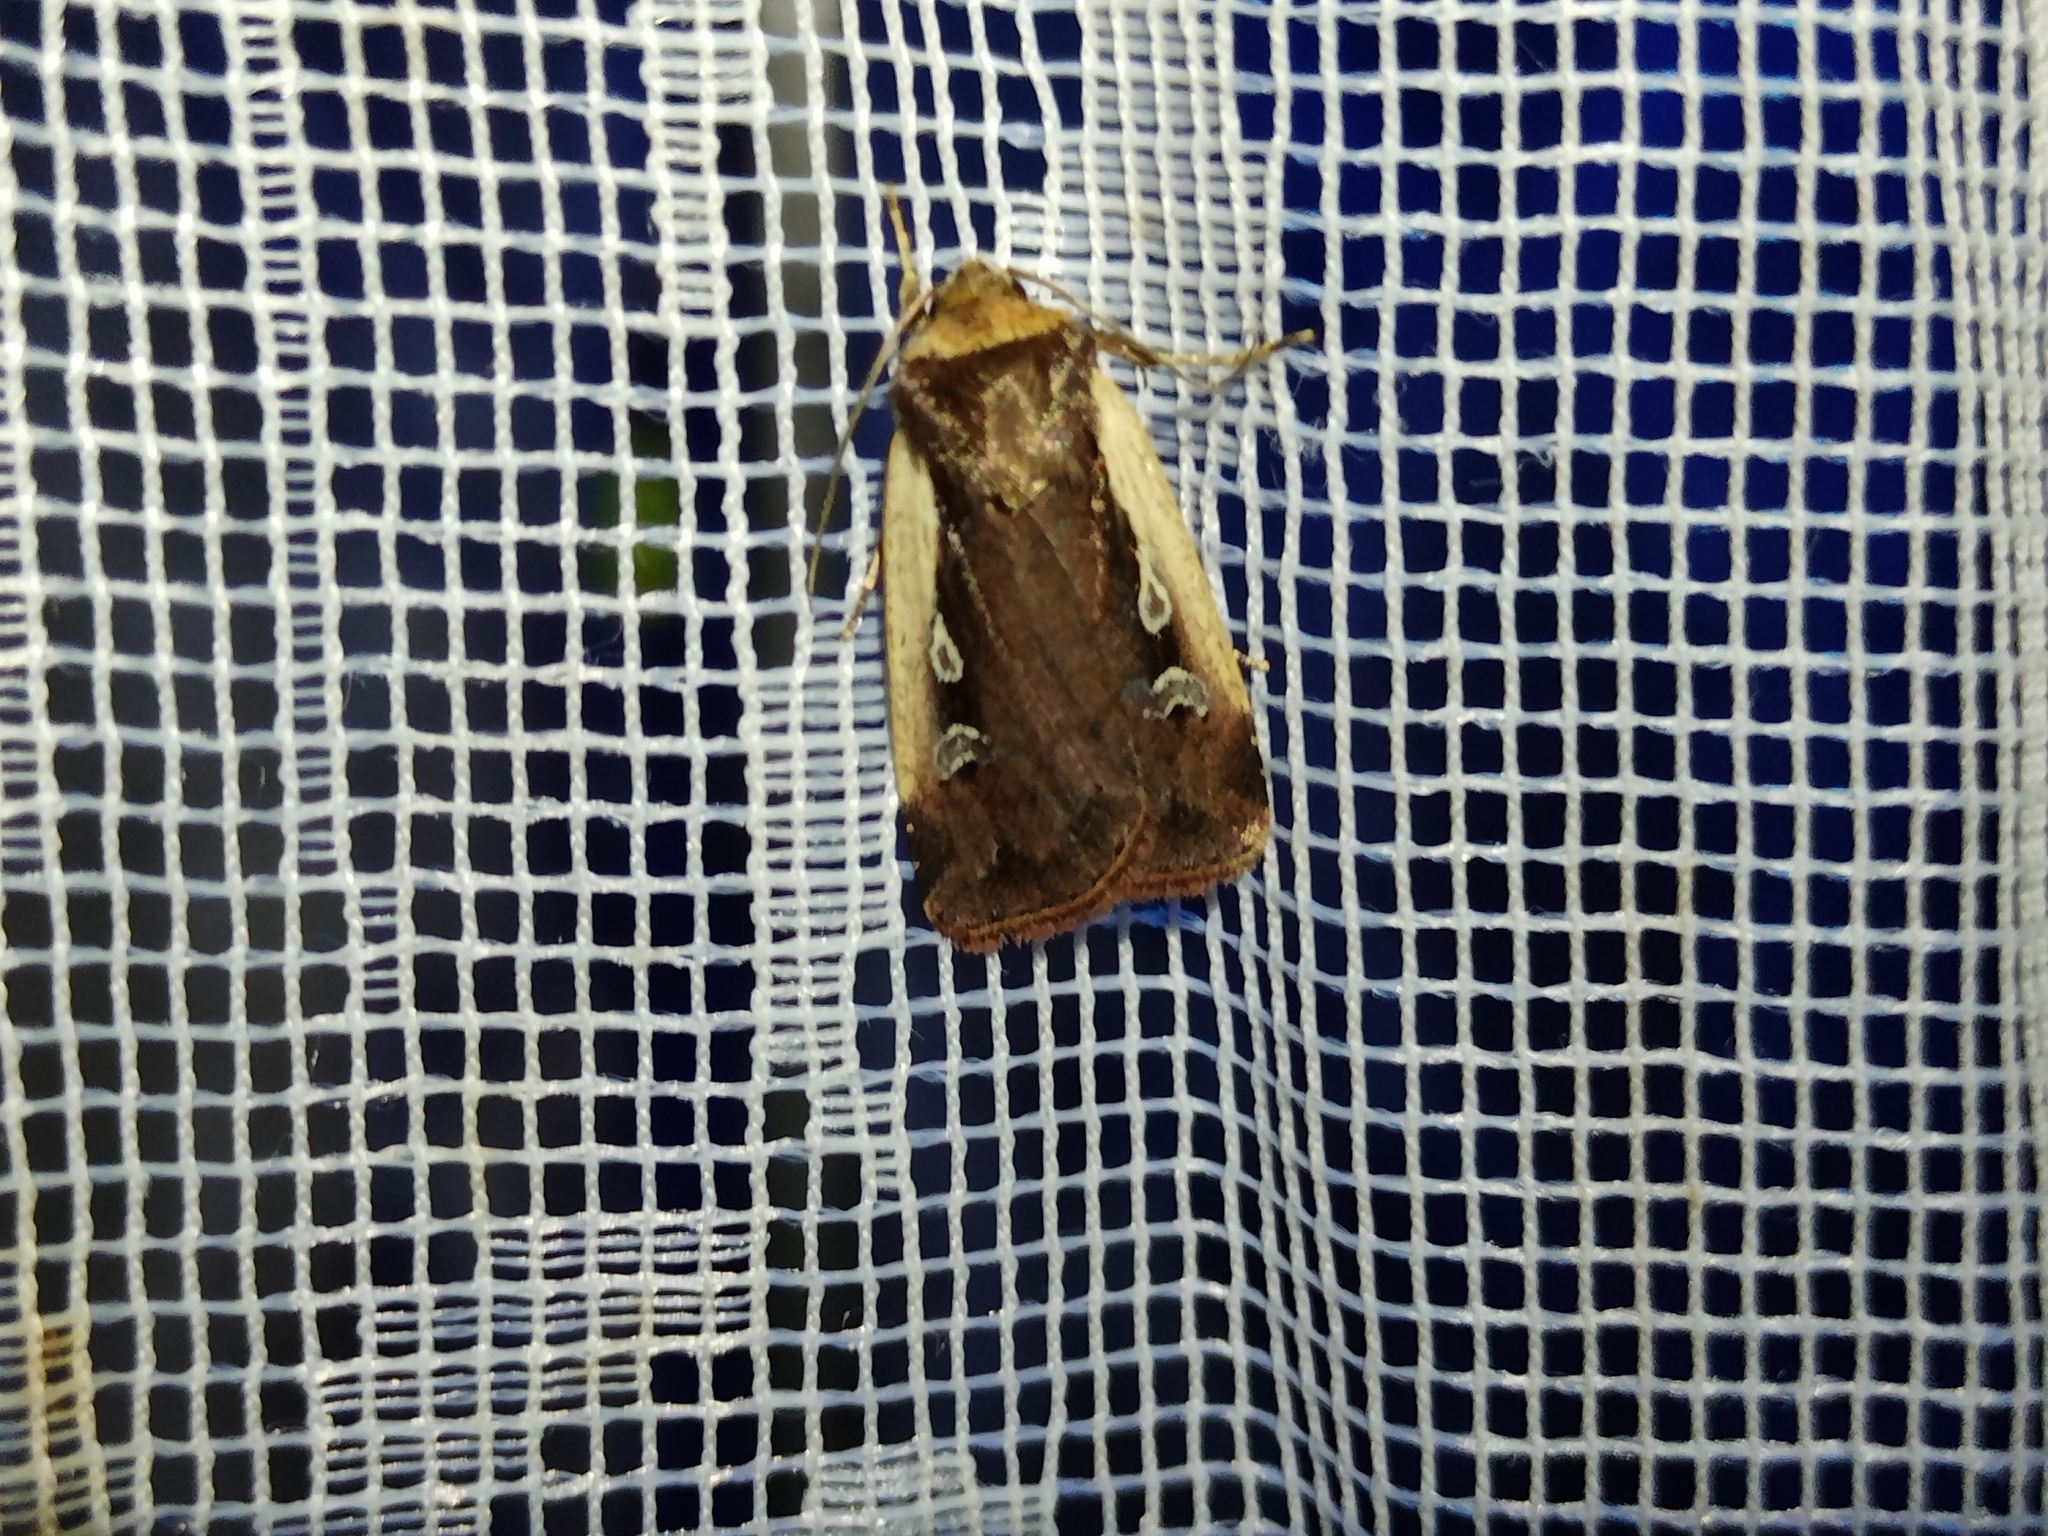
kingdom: Animalia
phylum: Arthropoda
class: Insecta
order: Lepidoptera
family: Noctuidae
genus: Ochropleura
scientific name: Ochropleura plecta
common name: Flame shoulder
